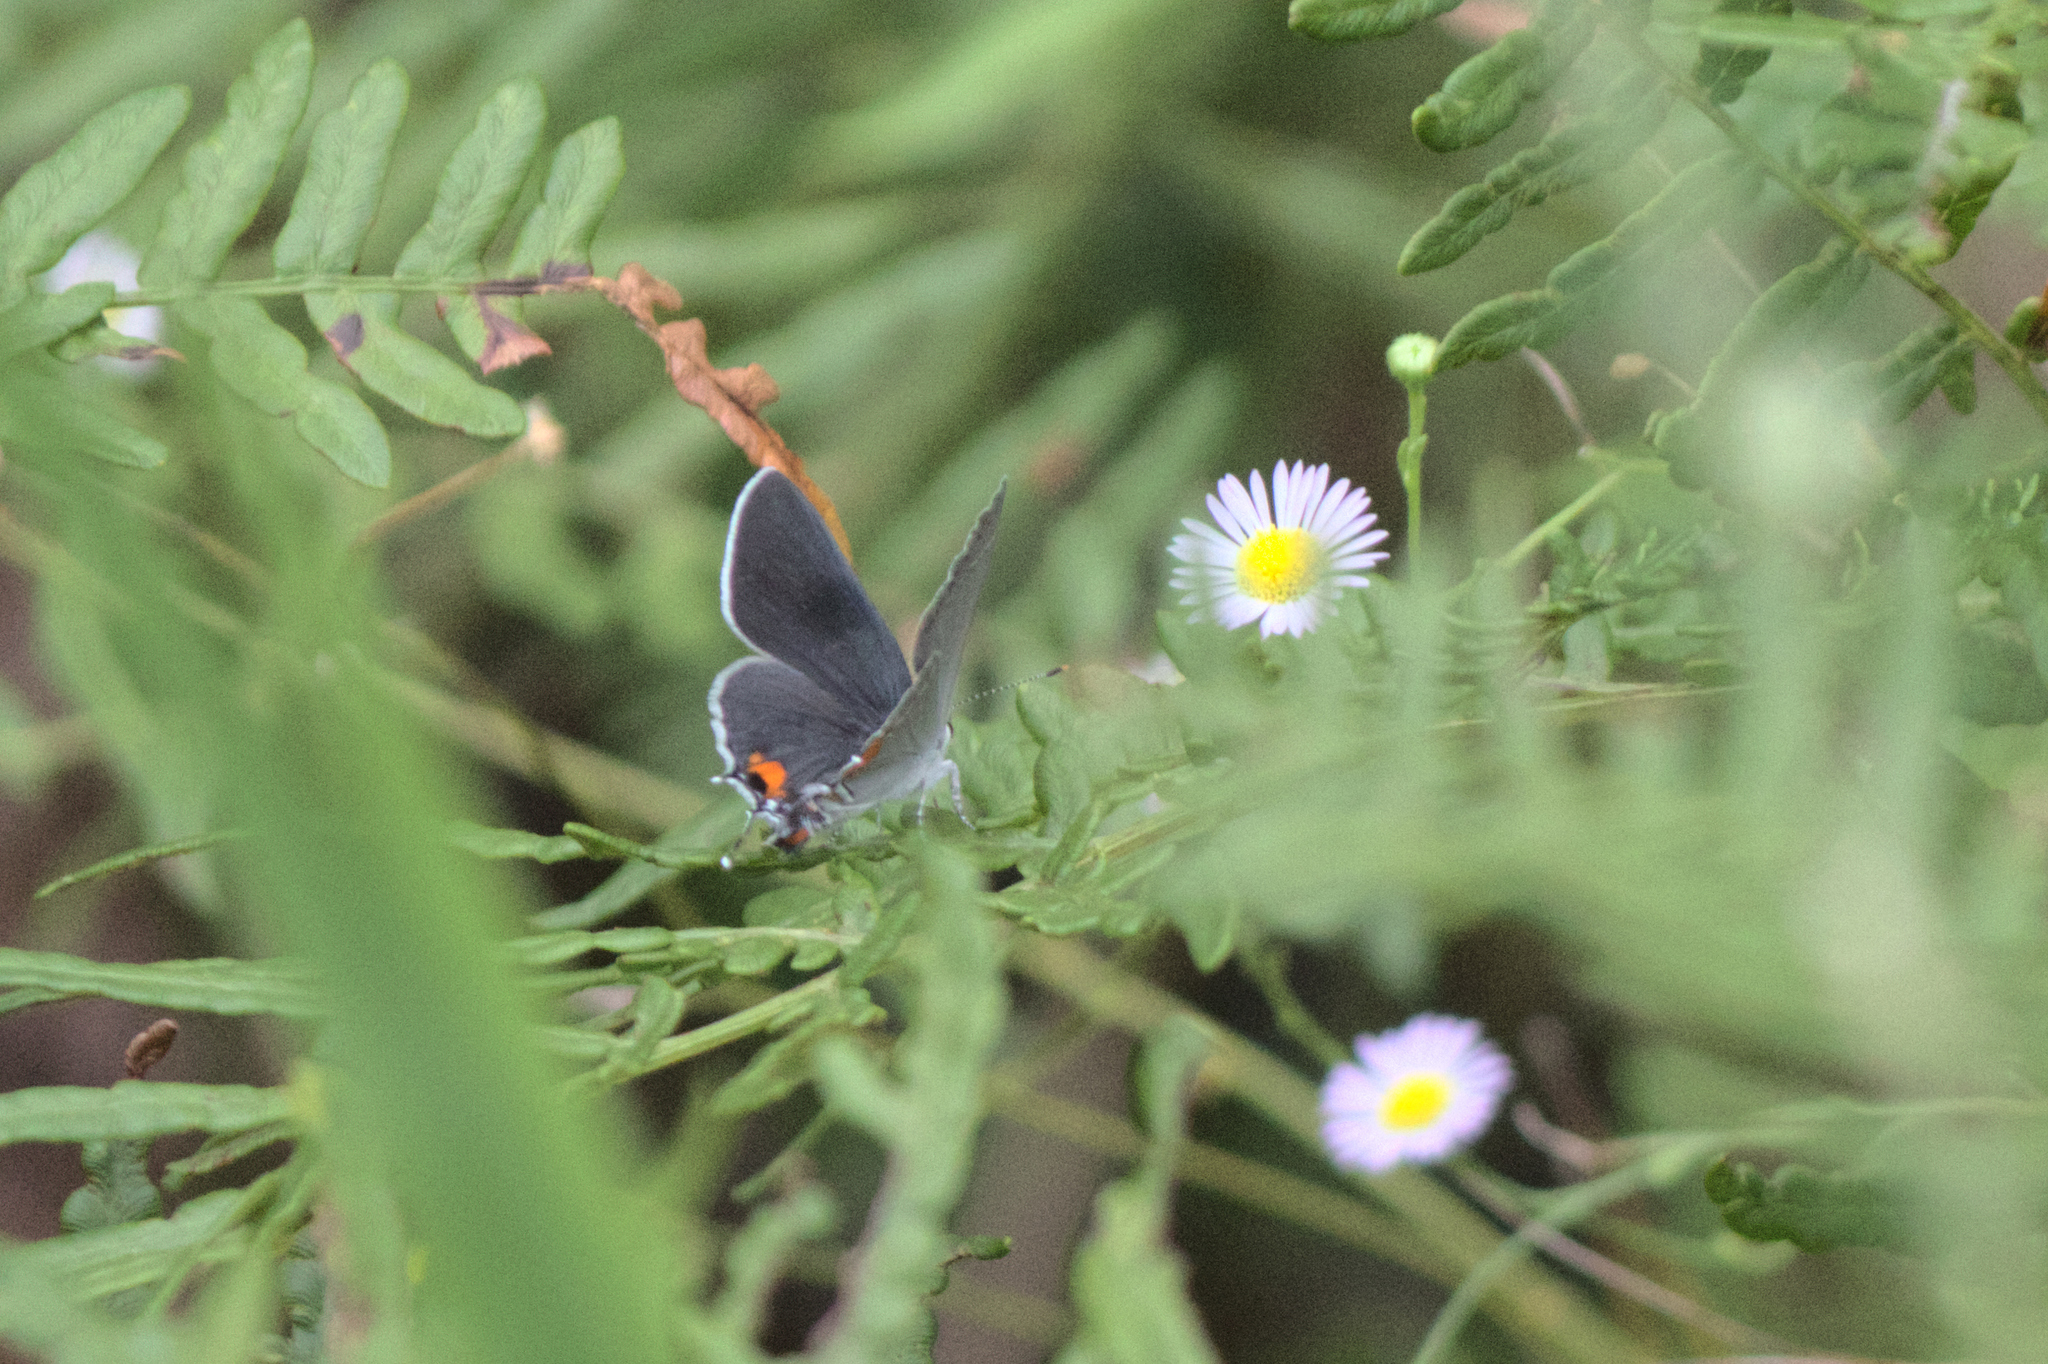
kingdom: Animalia
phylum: Arthropoda
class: Insecta
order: Lepidoptera
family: Lycaenidae
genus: Strymon
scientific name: Strymon melinus
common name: Gray hairstreak
